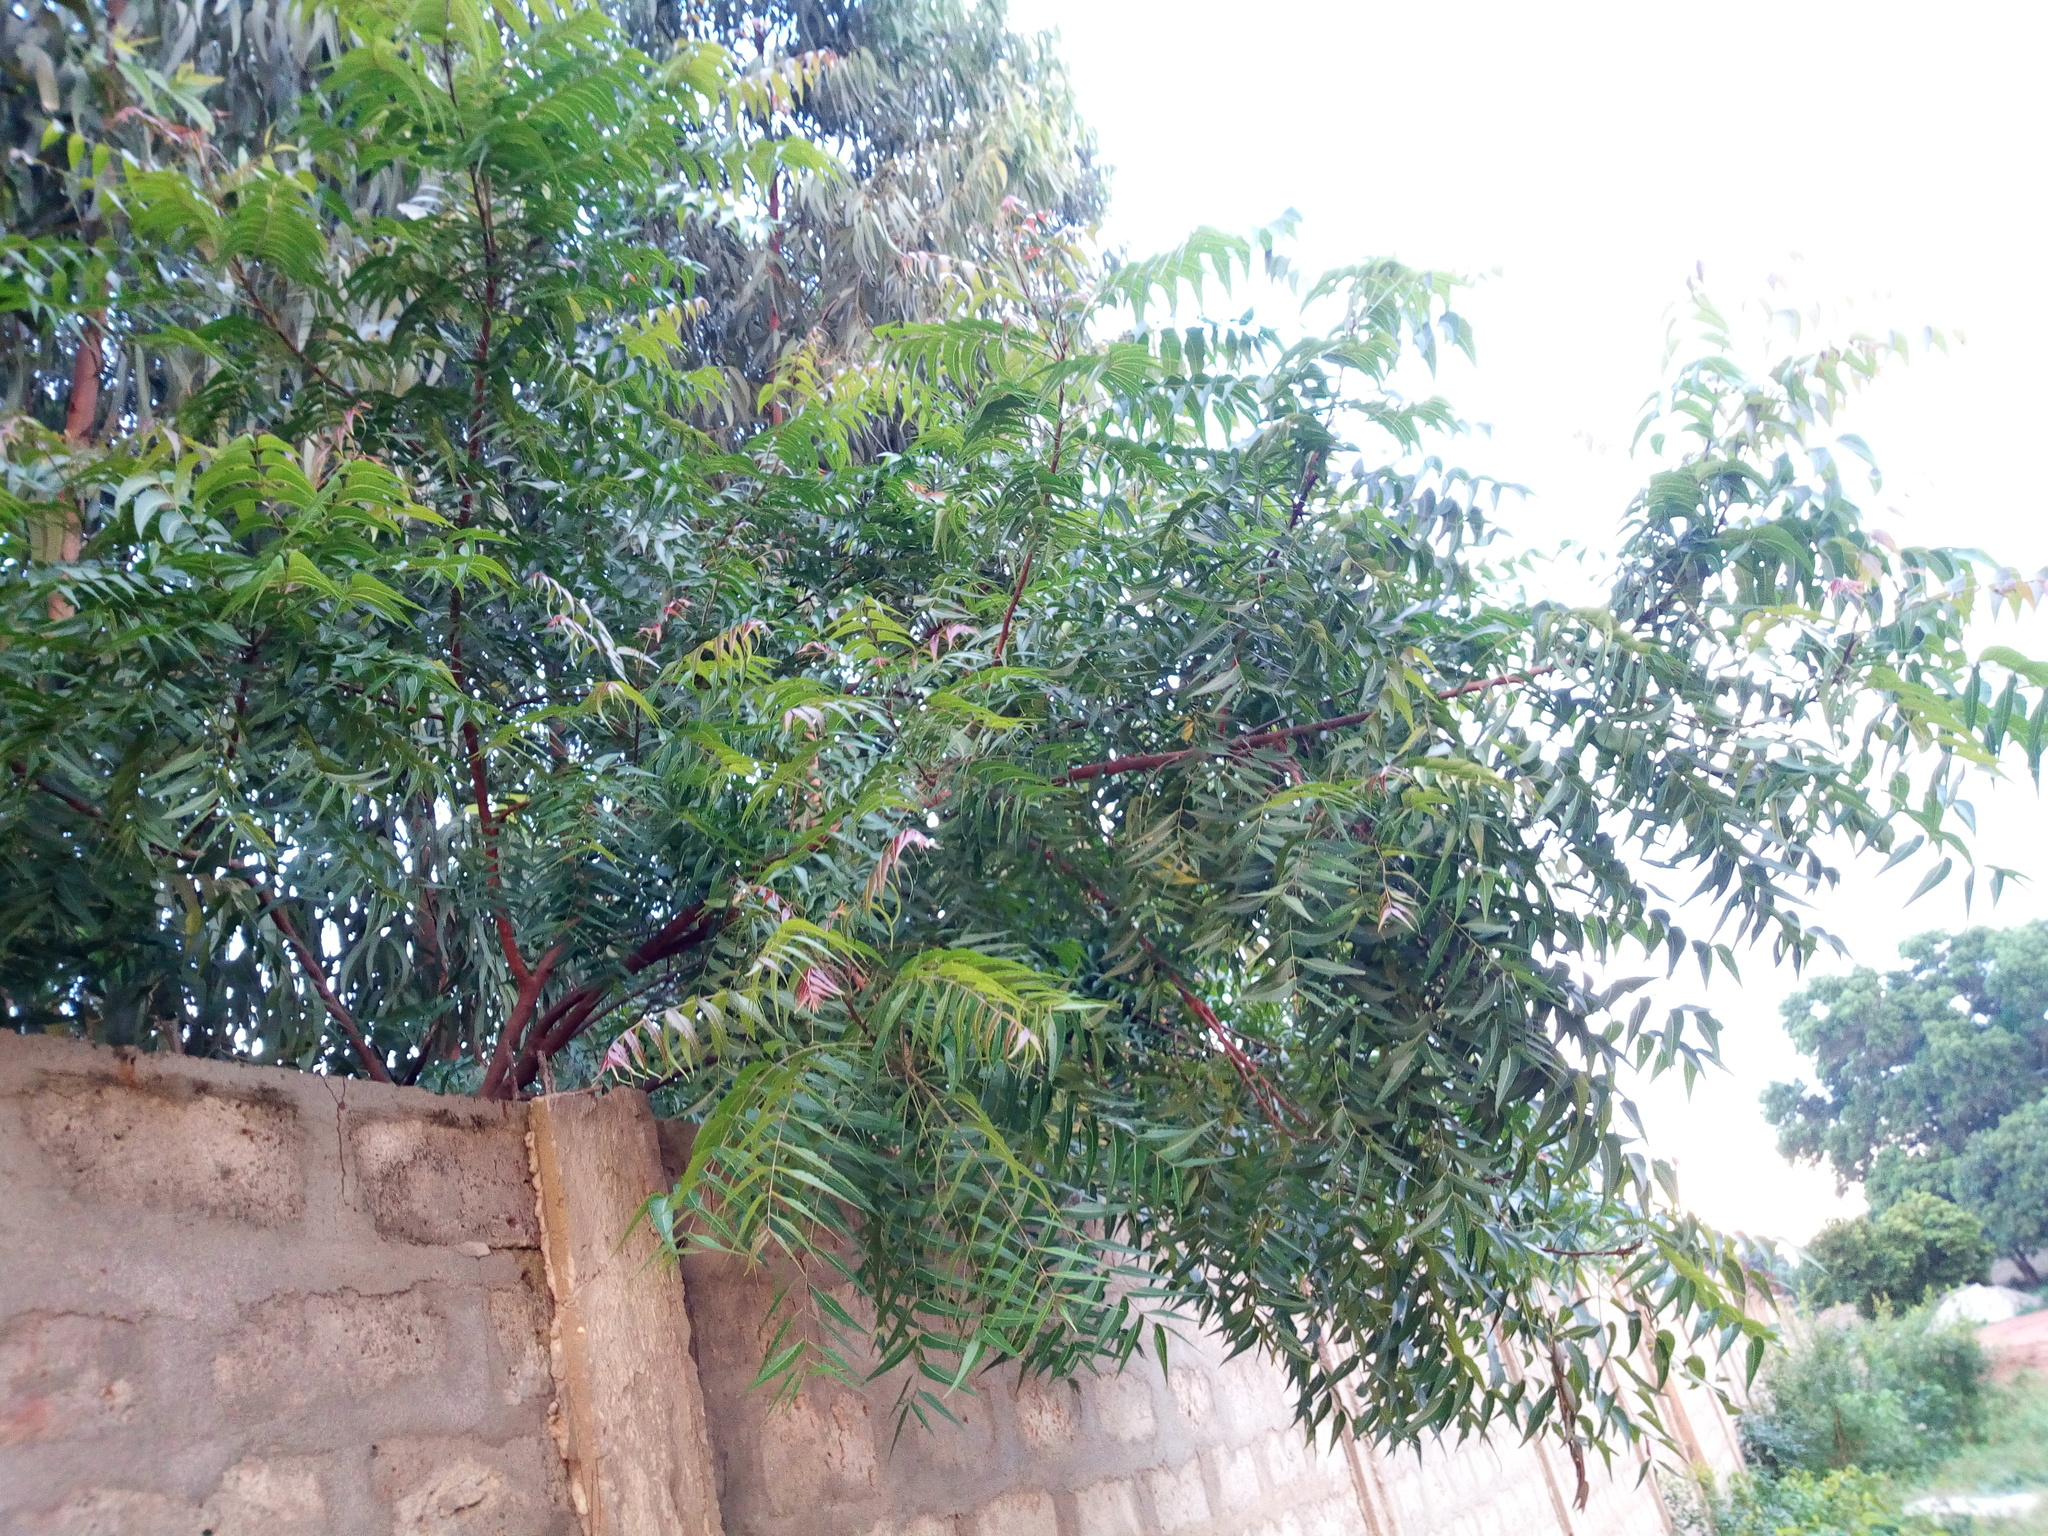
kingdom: Plantae
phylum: Tracheophyta
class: Magnoliopsida
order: Sapindales
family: Meliaceae
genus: Azadirachta
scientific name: Azadirachta indica
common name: Neem
